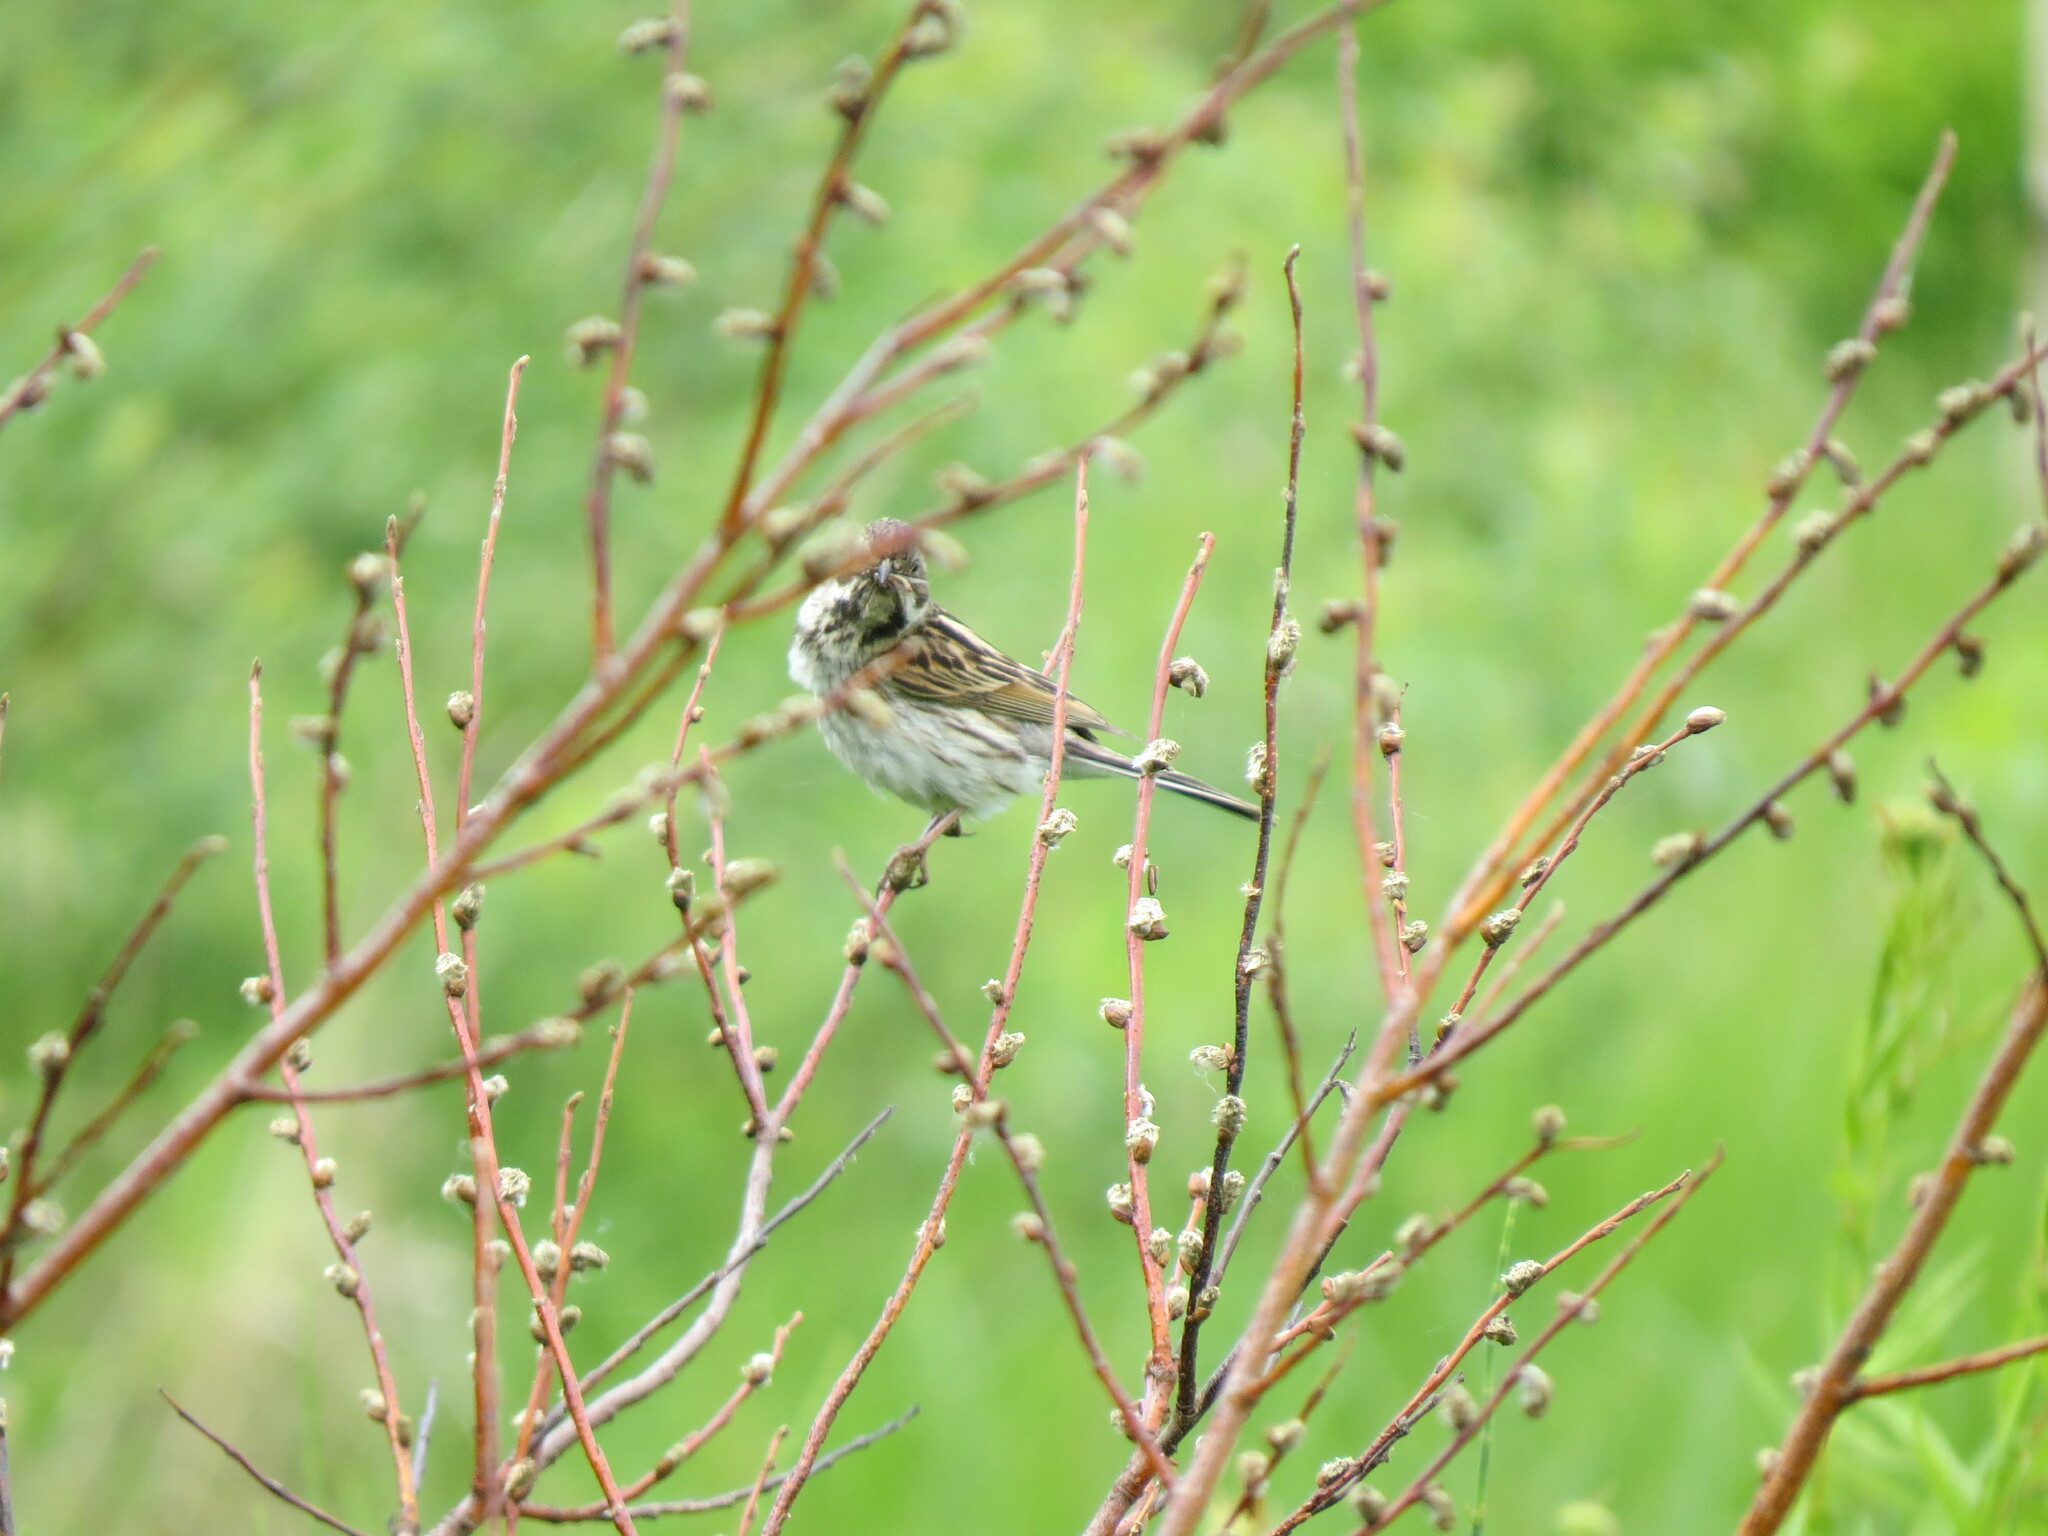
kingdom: Animalia
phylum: Chordata
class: Aves
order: Passeriformes
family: Emberizidae
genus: Emberiza
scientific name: Emberiza schoeniclus
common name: Reed bunting
